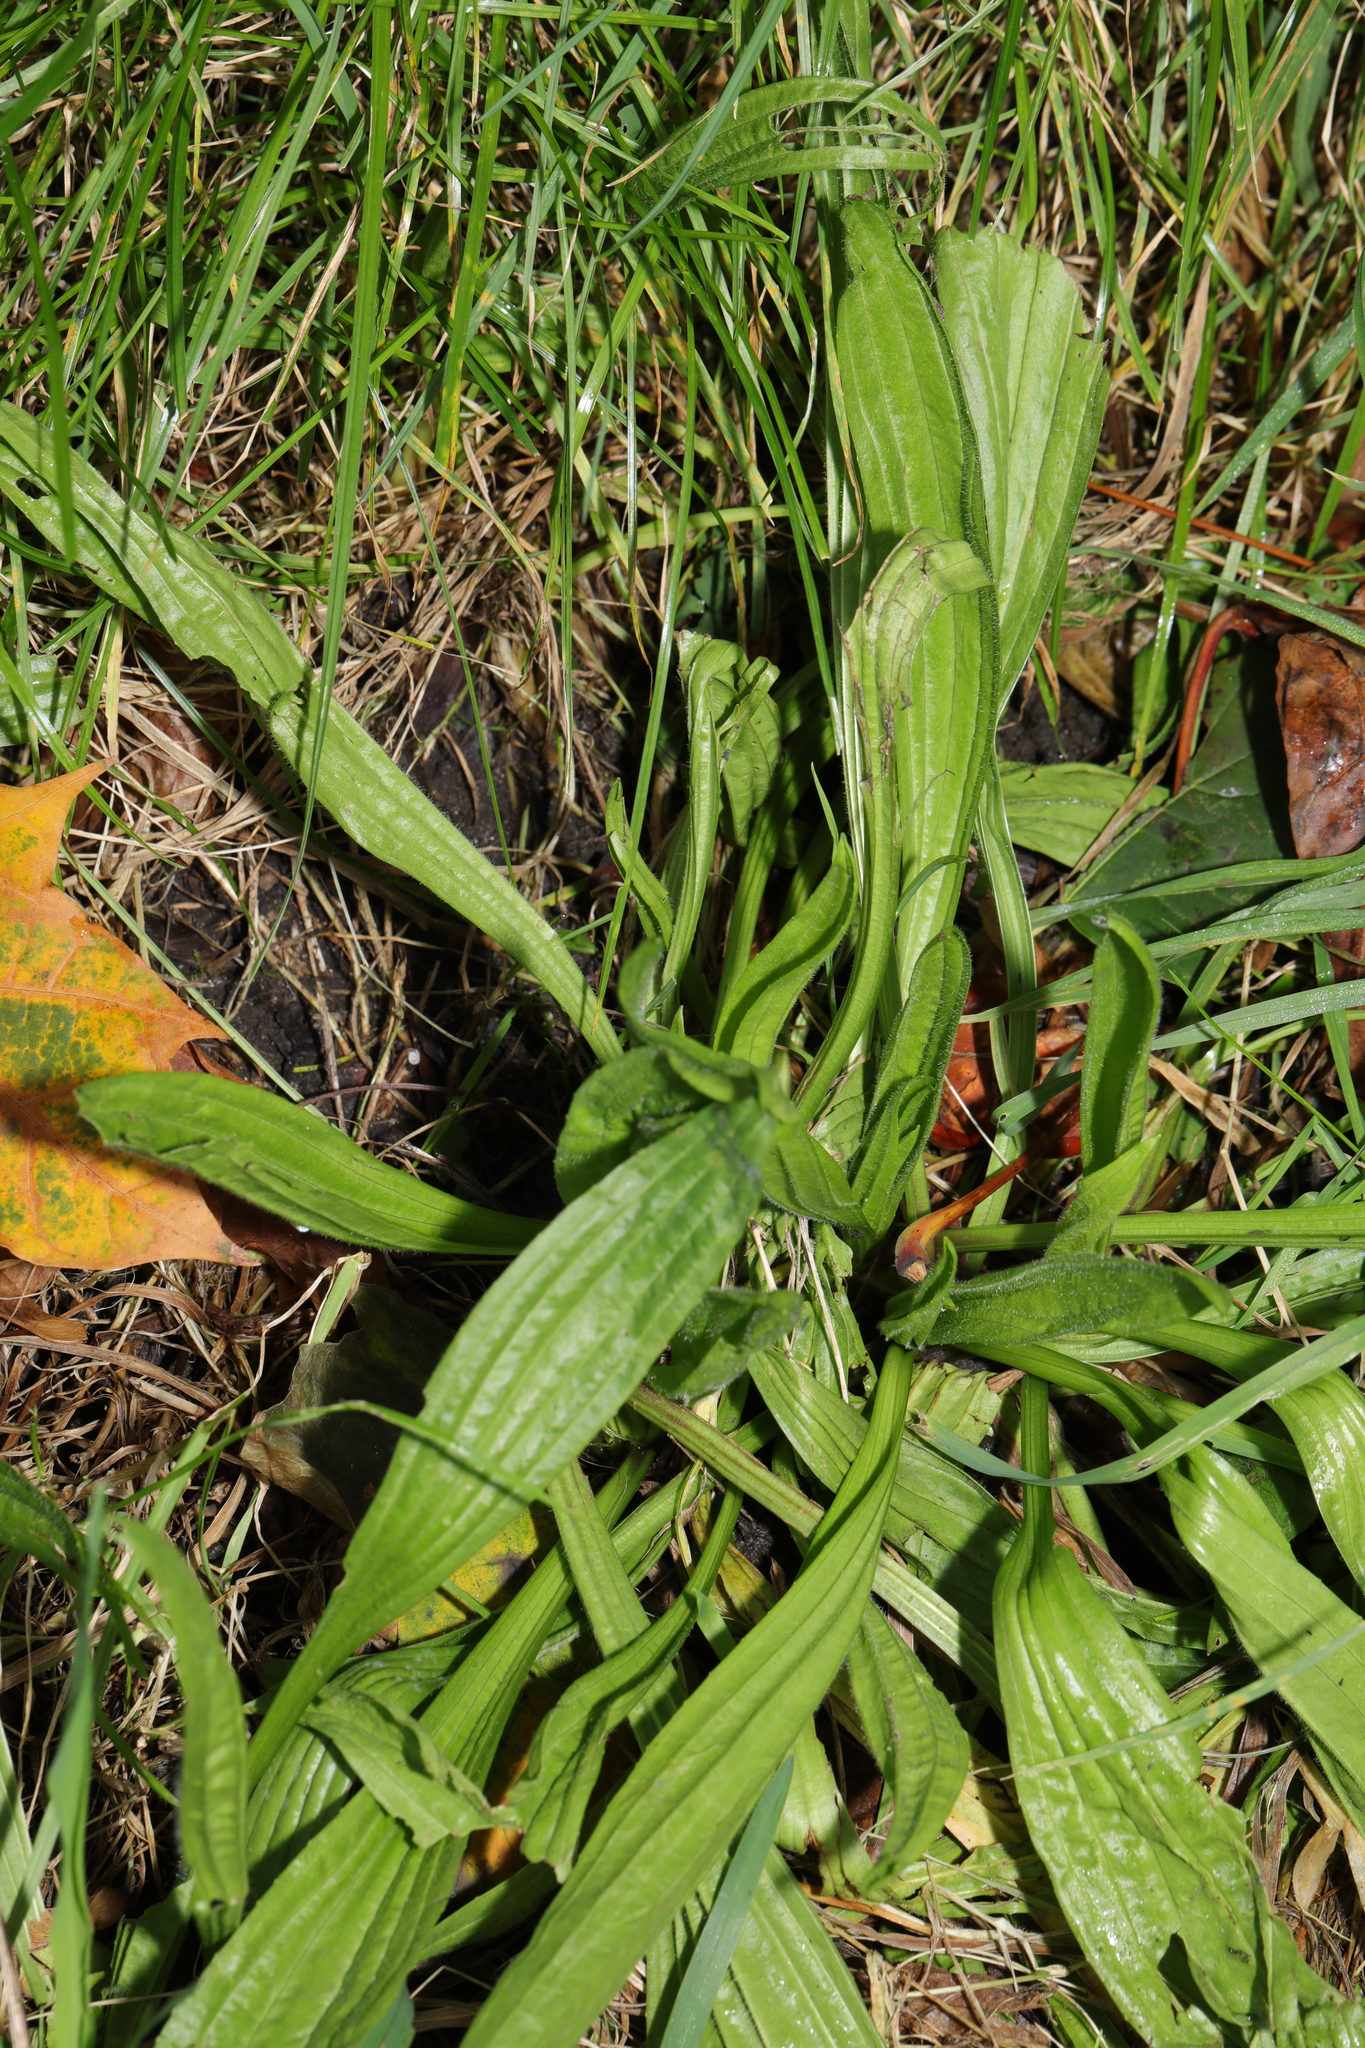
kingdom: Plantae
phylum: Tracheophyta
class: Magnoliopsida
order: Lamiales
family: Plantaginaceae
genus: Plantago
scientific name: Plantago lanceolata
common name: Ribwort plantain
